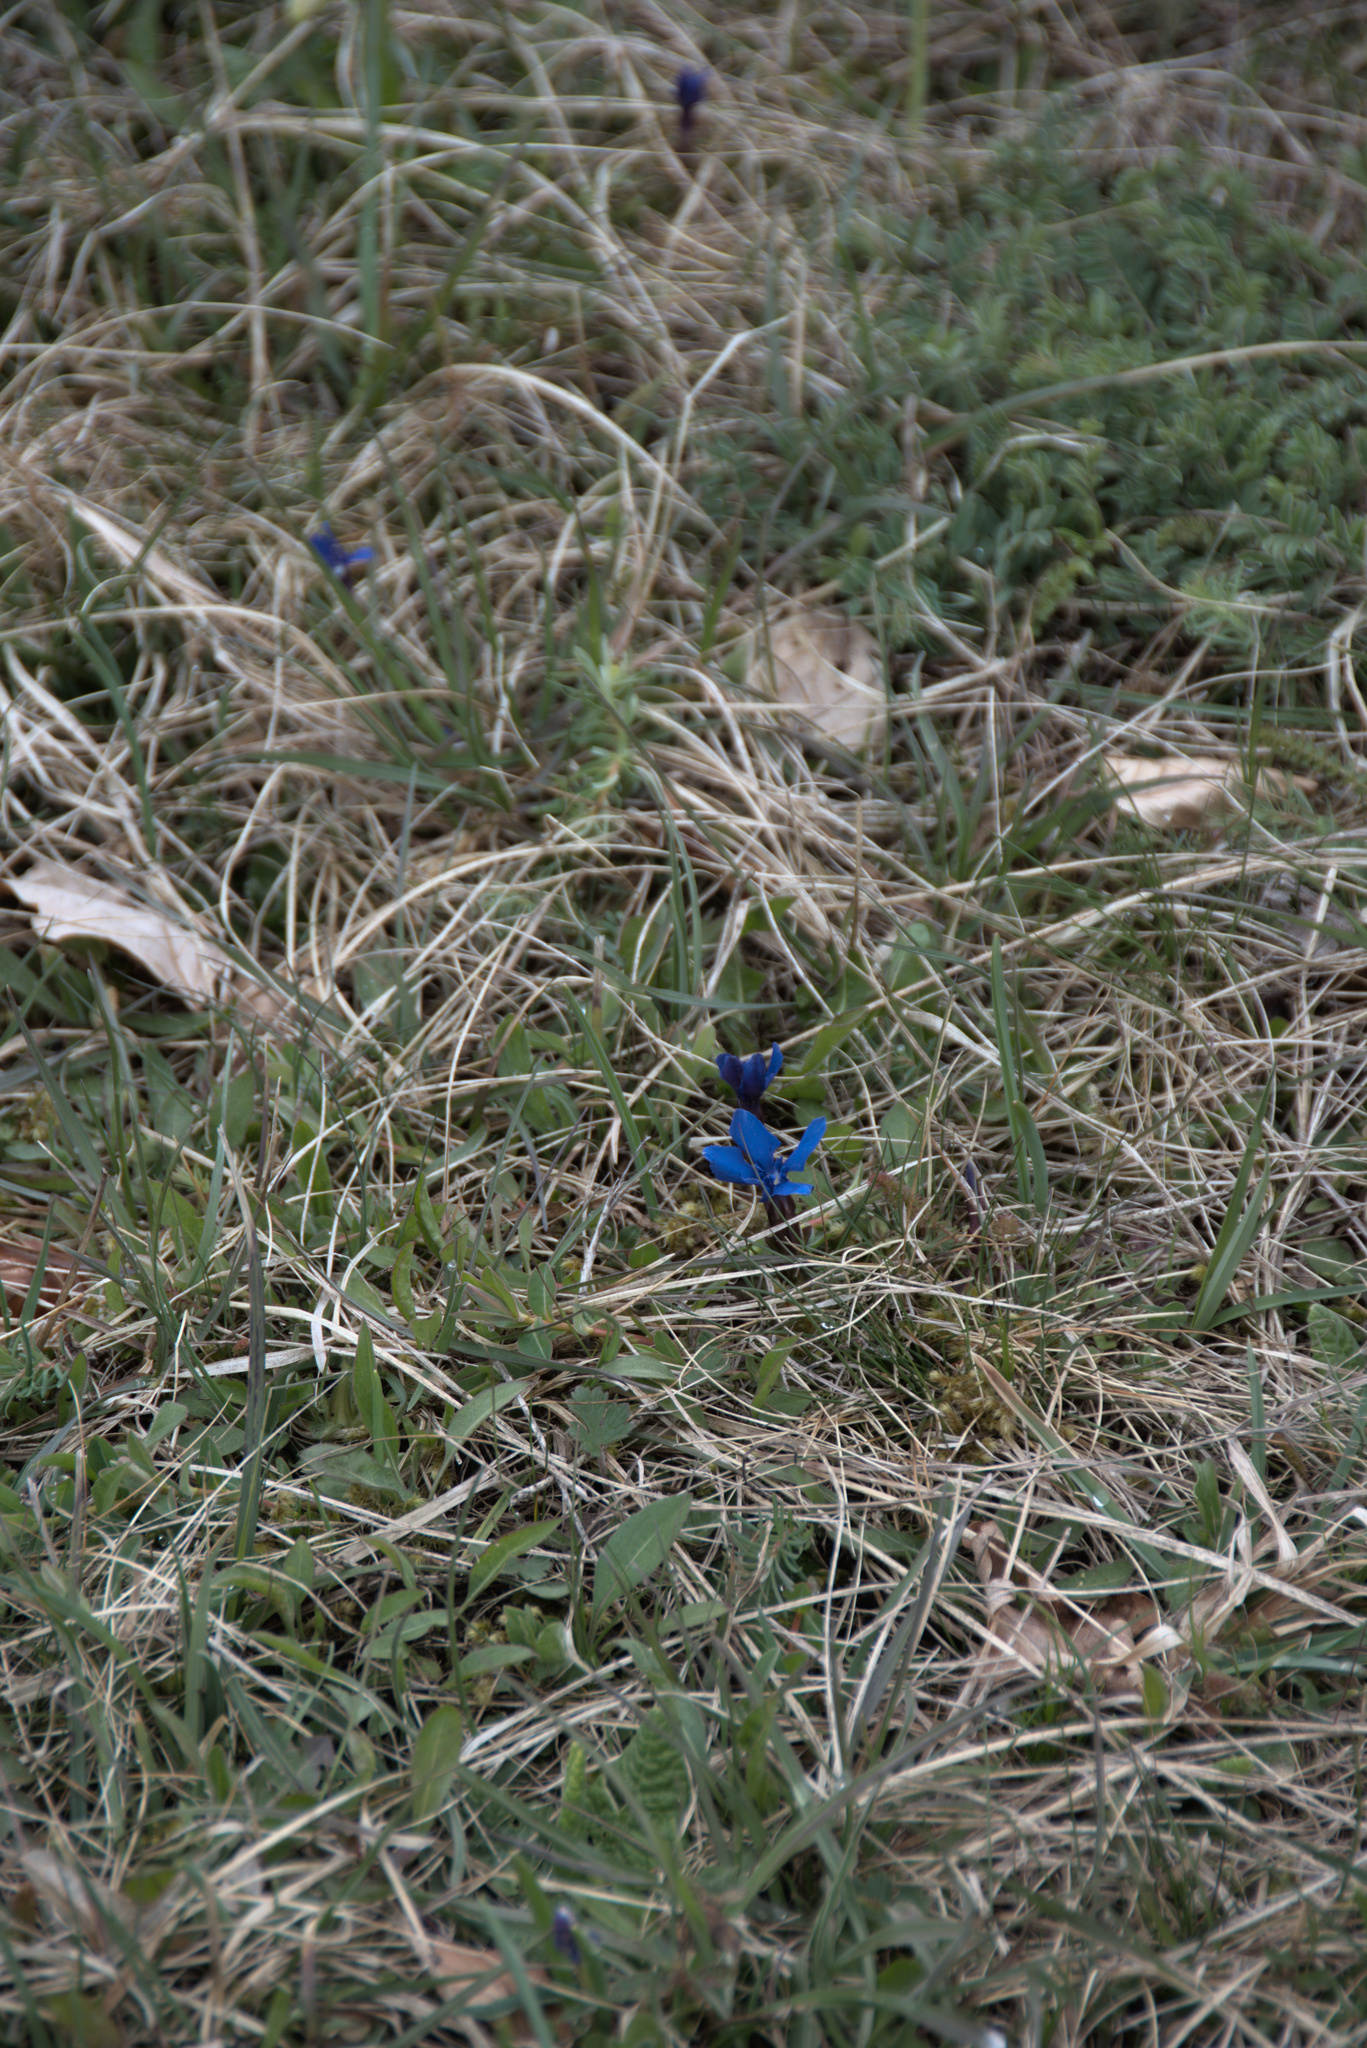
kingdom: Plantae
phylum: Tracheophyta
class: Magnoliopsida
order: Gentianales
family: Gentianaceae
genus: Gentiana
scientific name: Gentiana verna
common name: Spring gentian
